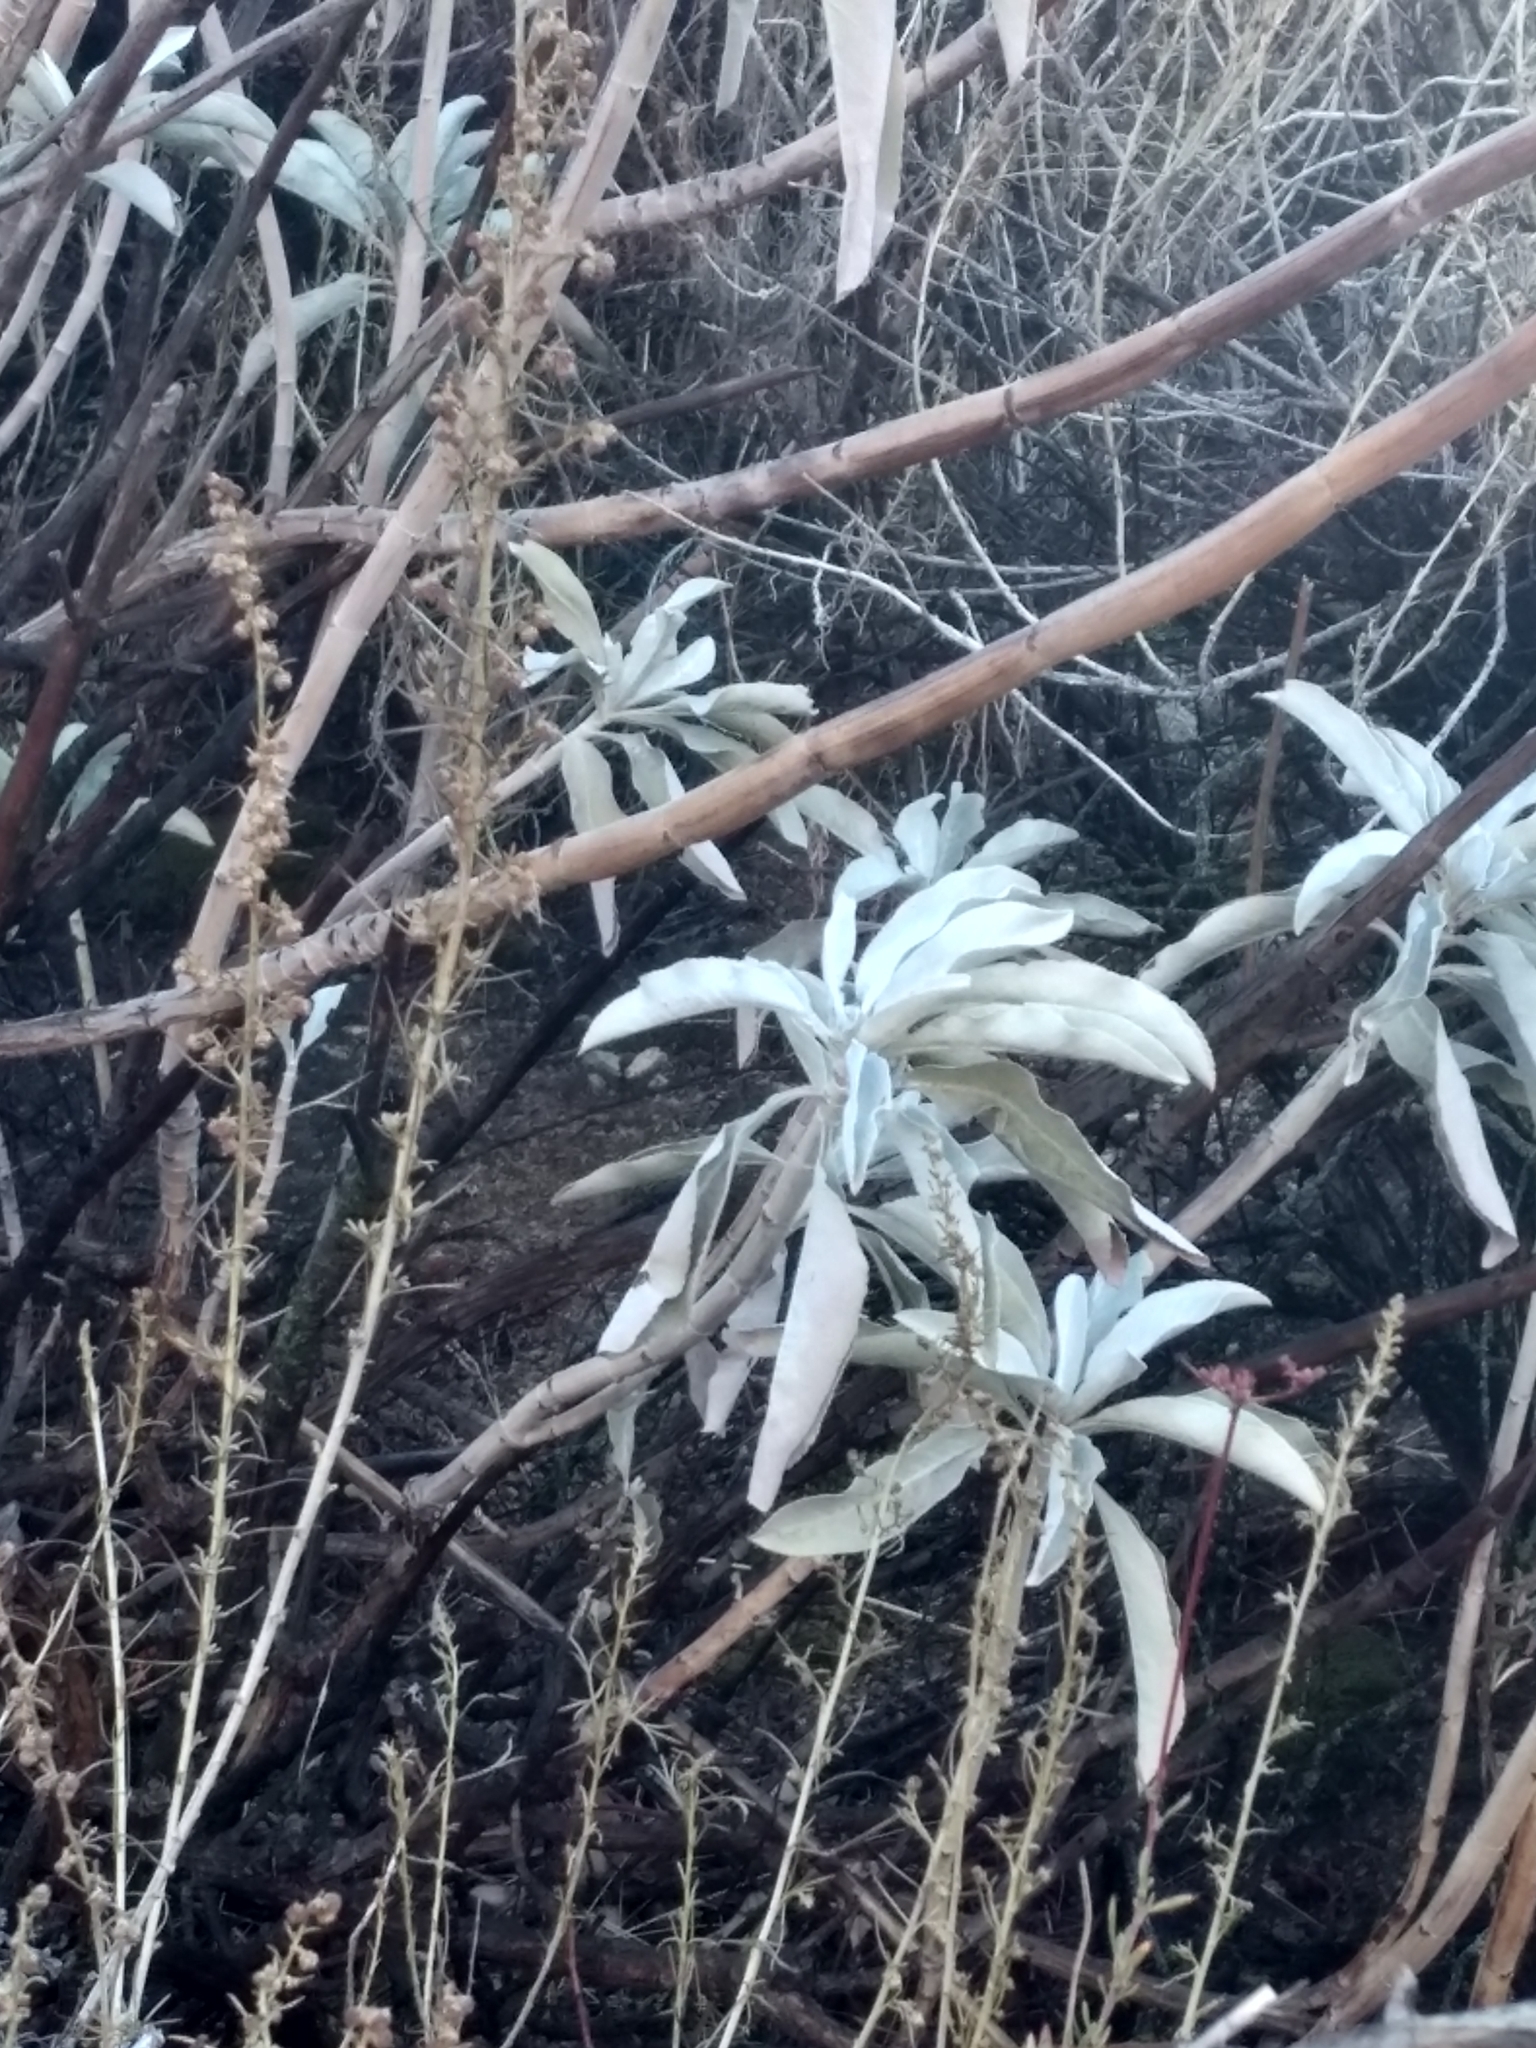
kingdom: Plantae
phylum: Tracheophyta
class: Magnoliopsida
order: Lamiales
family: Lamiaceae
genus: Salvia
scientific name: Salvia apiana
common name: White sage
